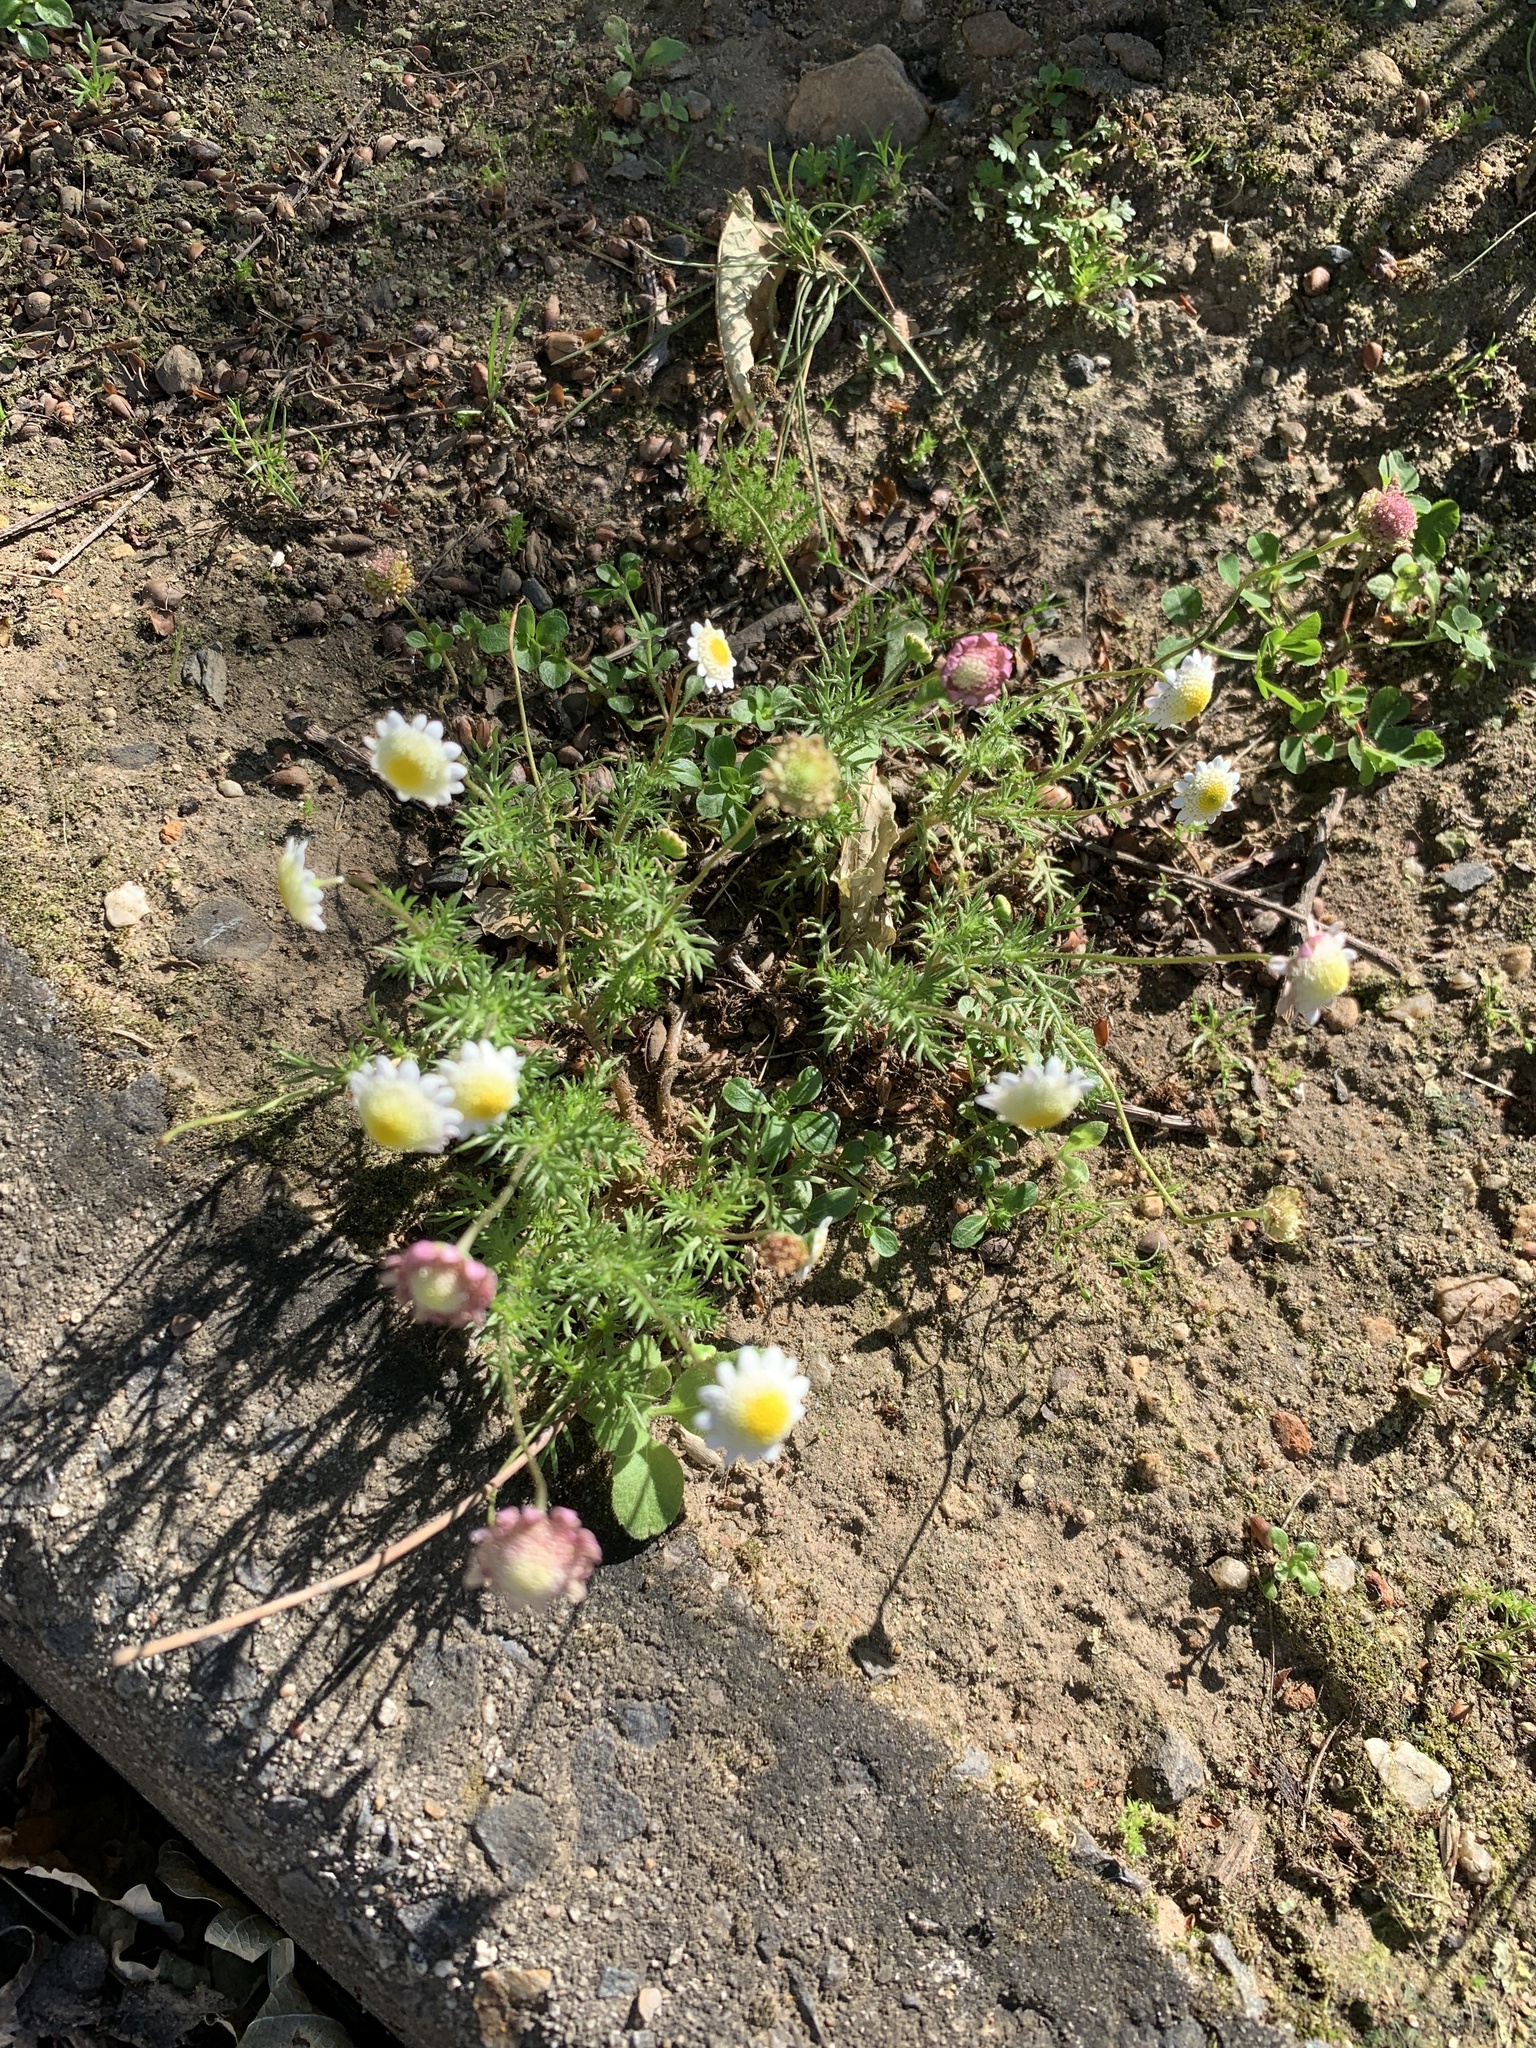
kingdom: Plantae
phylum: Tracheophyta
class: Magnoliopsida
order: Asterales
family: Asteraceae
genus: Cotula
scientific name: Cotula turbinata
